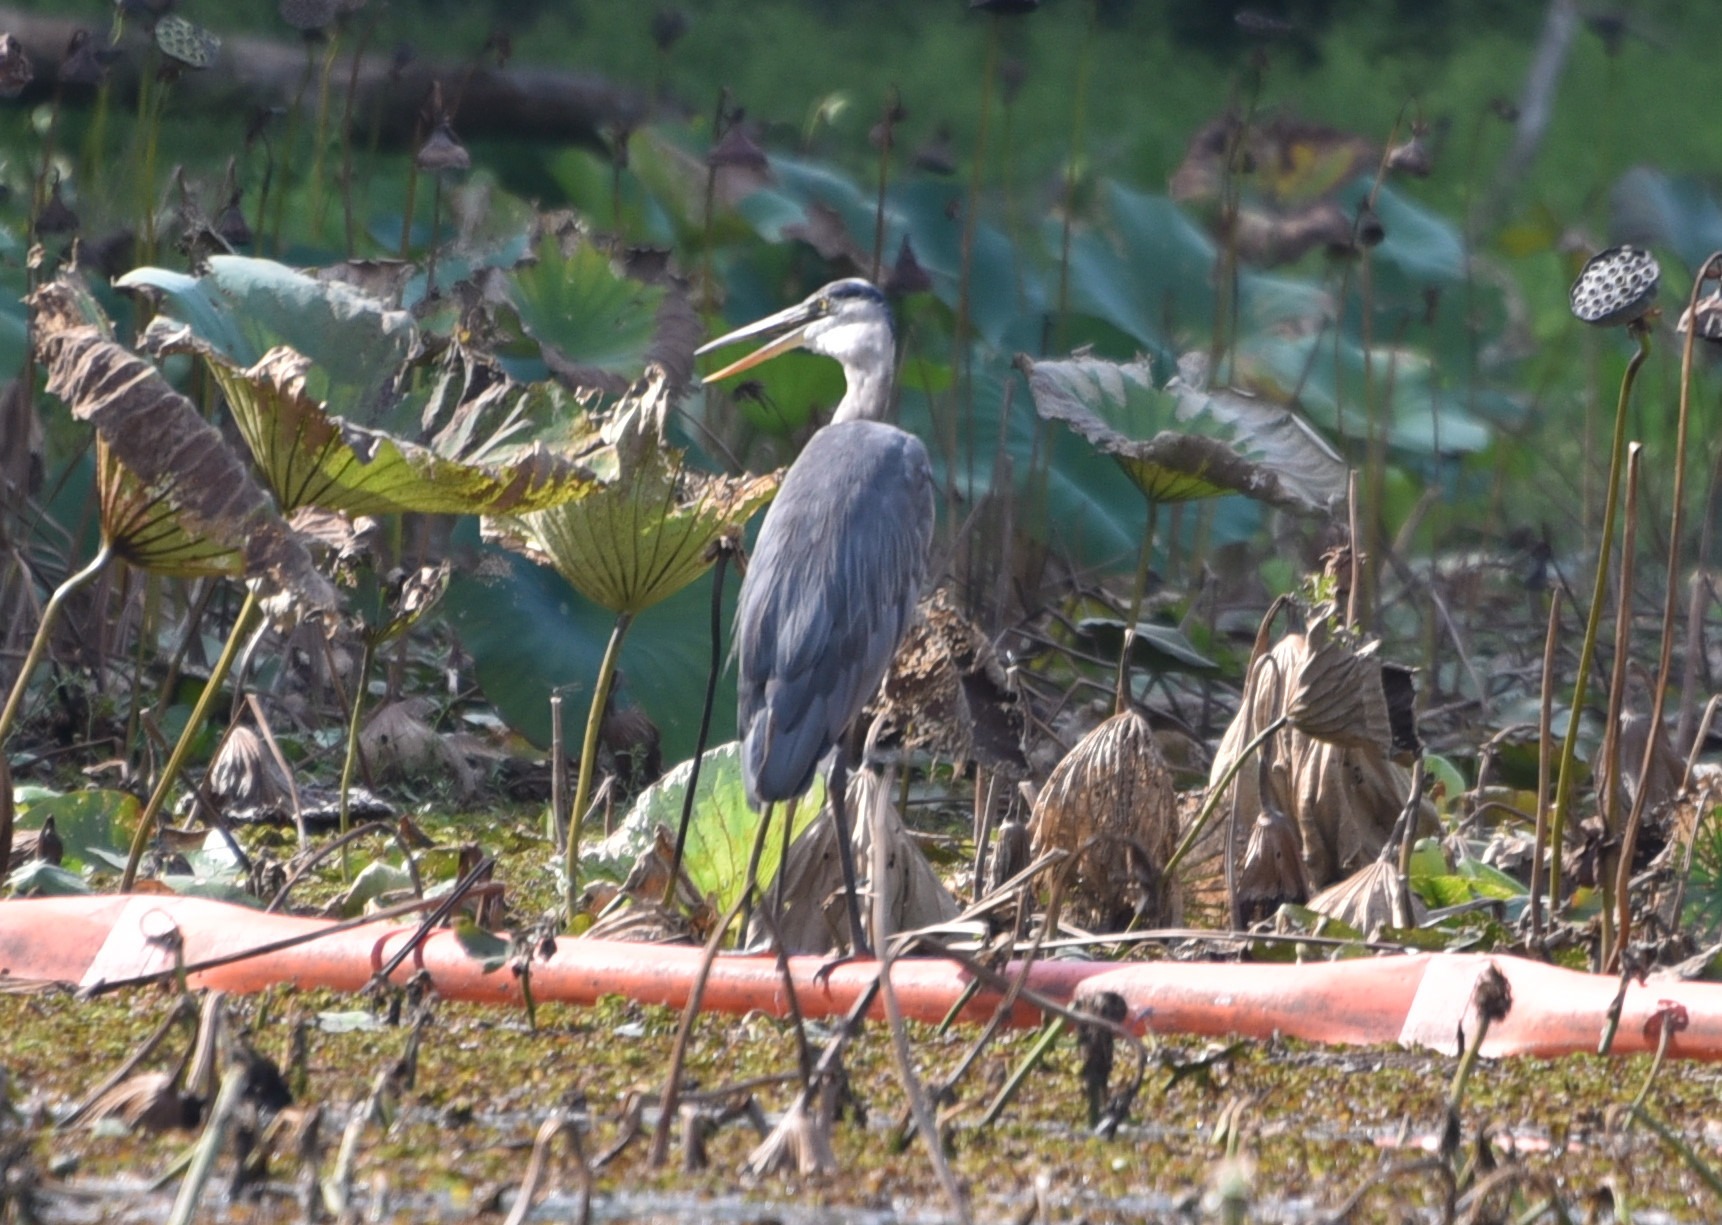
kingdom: Animalia
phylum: Chordata
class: Aves
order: Pelecaniformes
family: Ardeidae
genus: Ardea
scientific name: Ardea herodias
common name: Great blue heron
